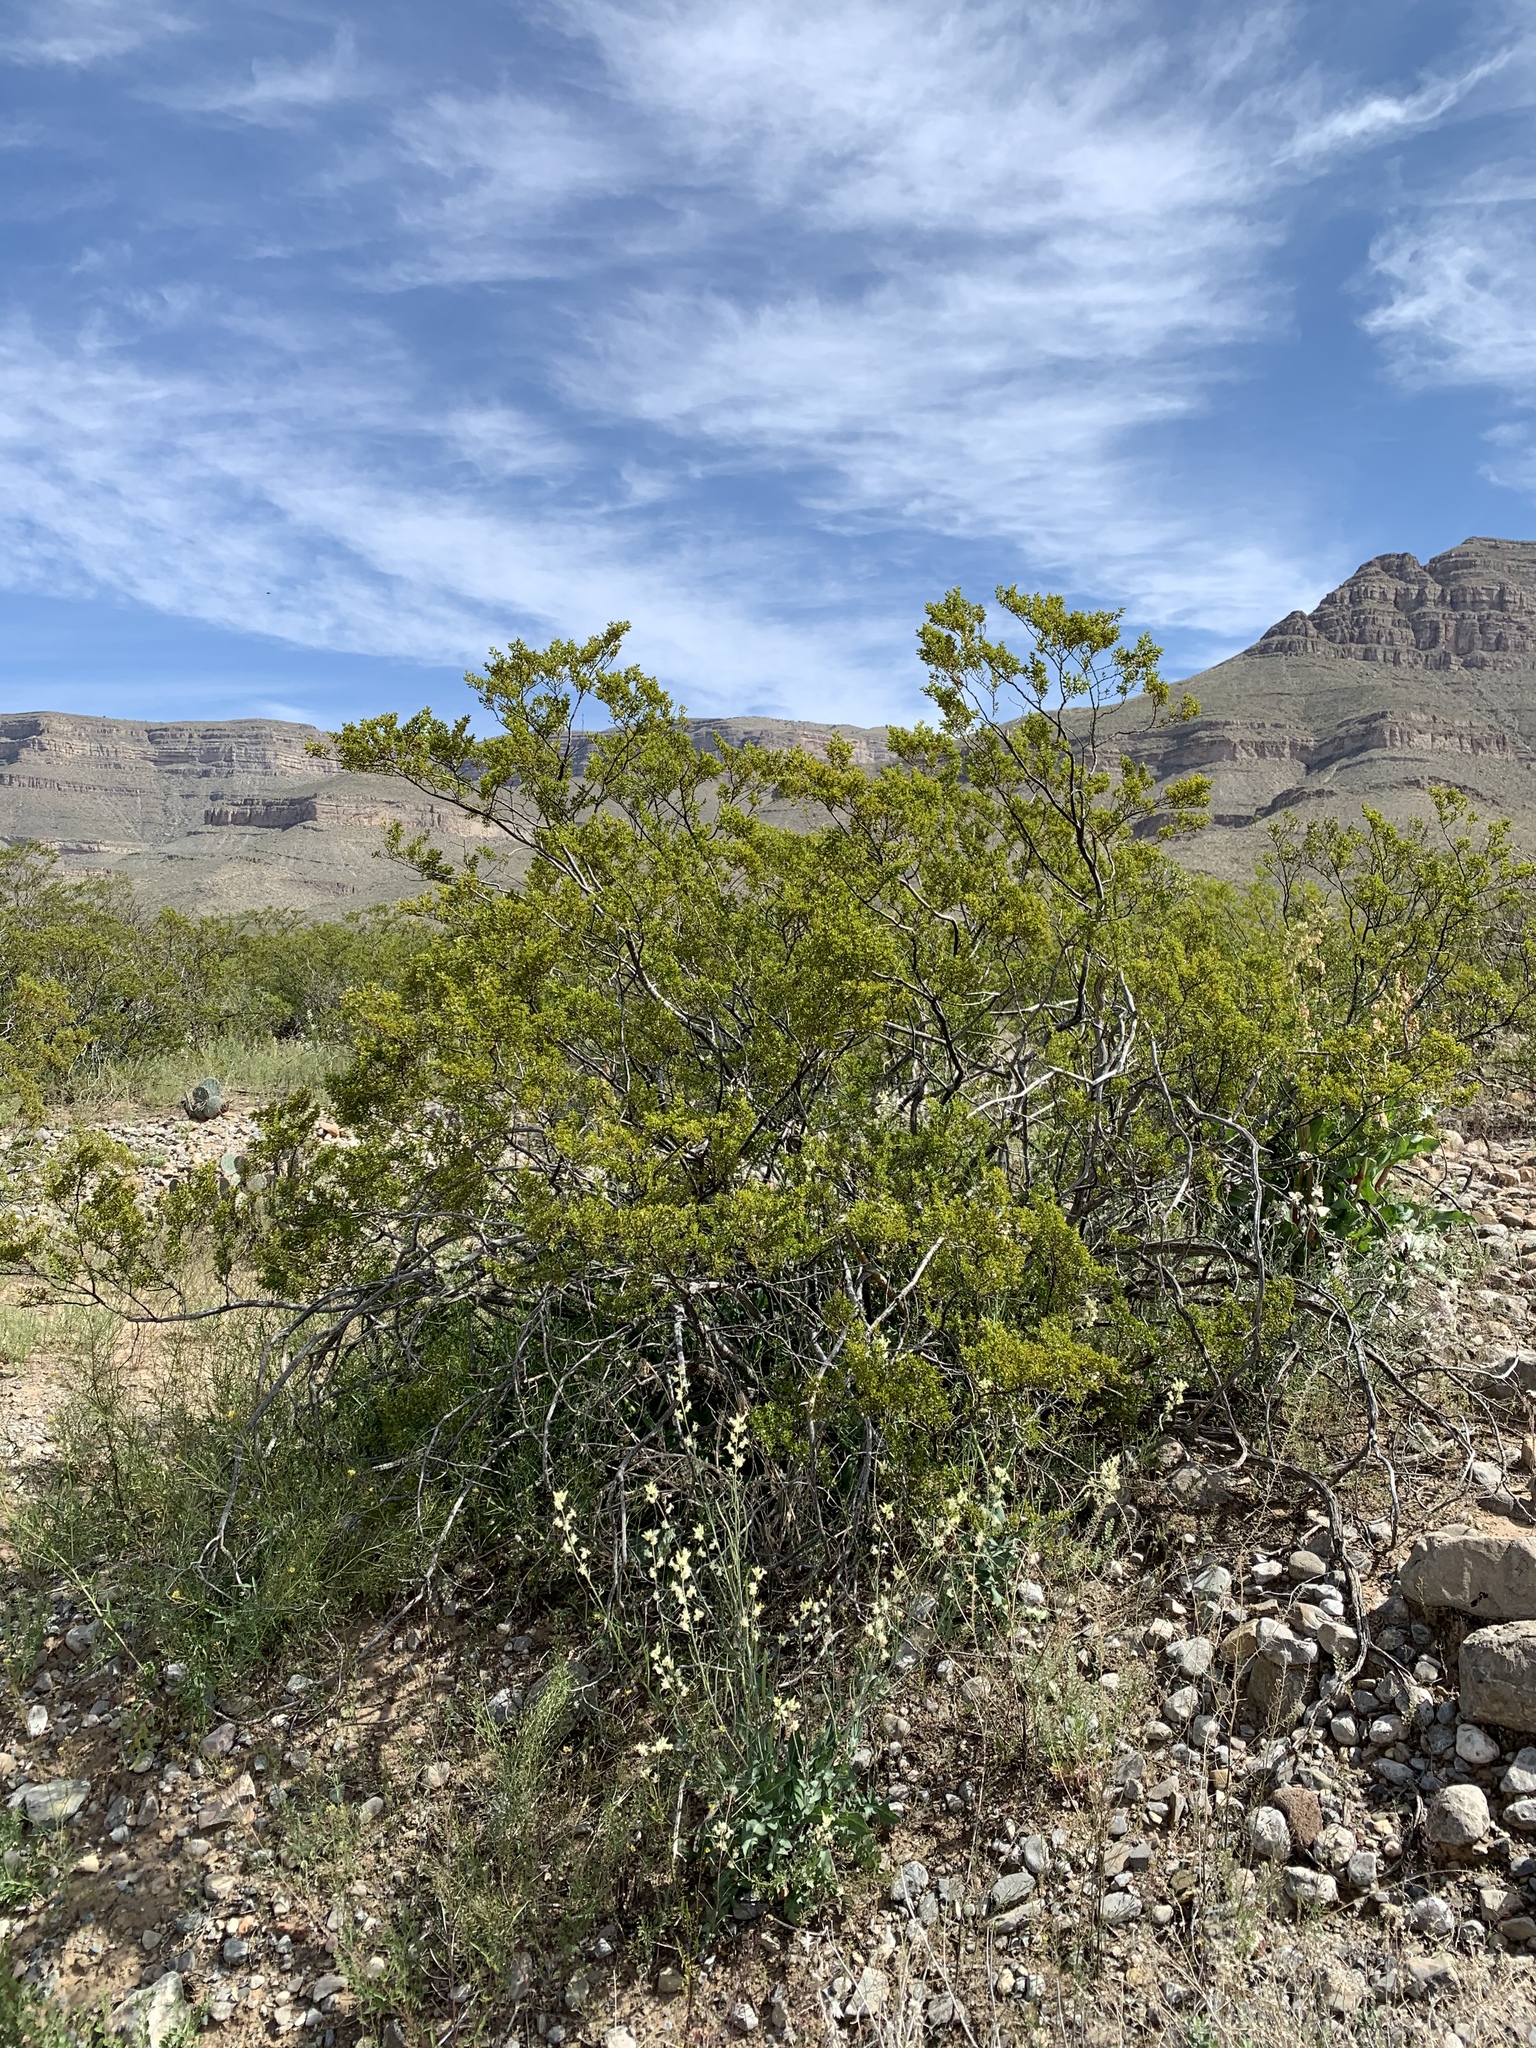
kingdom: Plantae
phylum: Tracheophyta
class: Magnoliopsida
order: Zygophyllales
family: Zygophyllaceae
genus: Larrea
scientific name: Larrea tridentata
